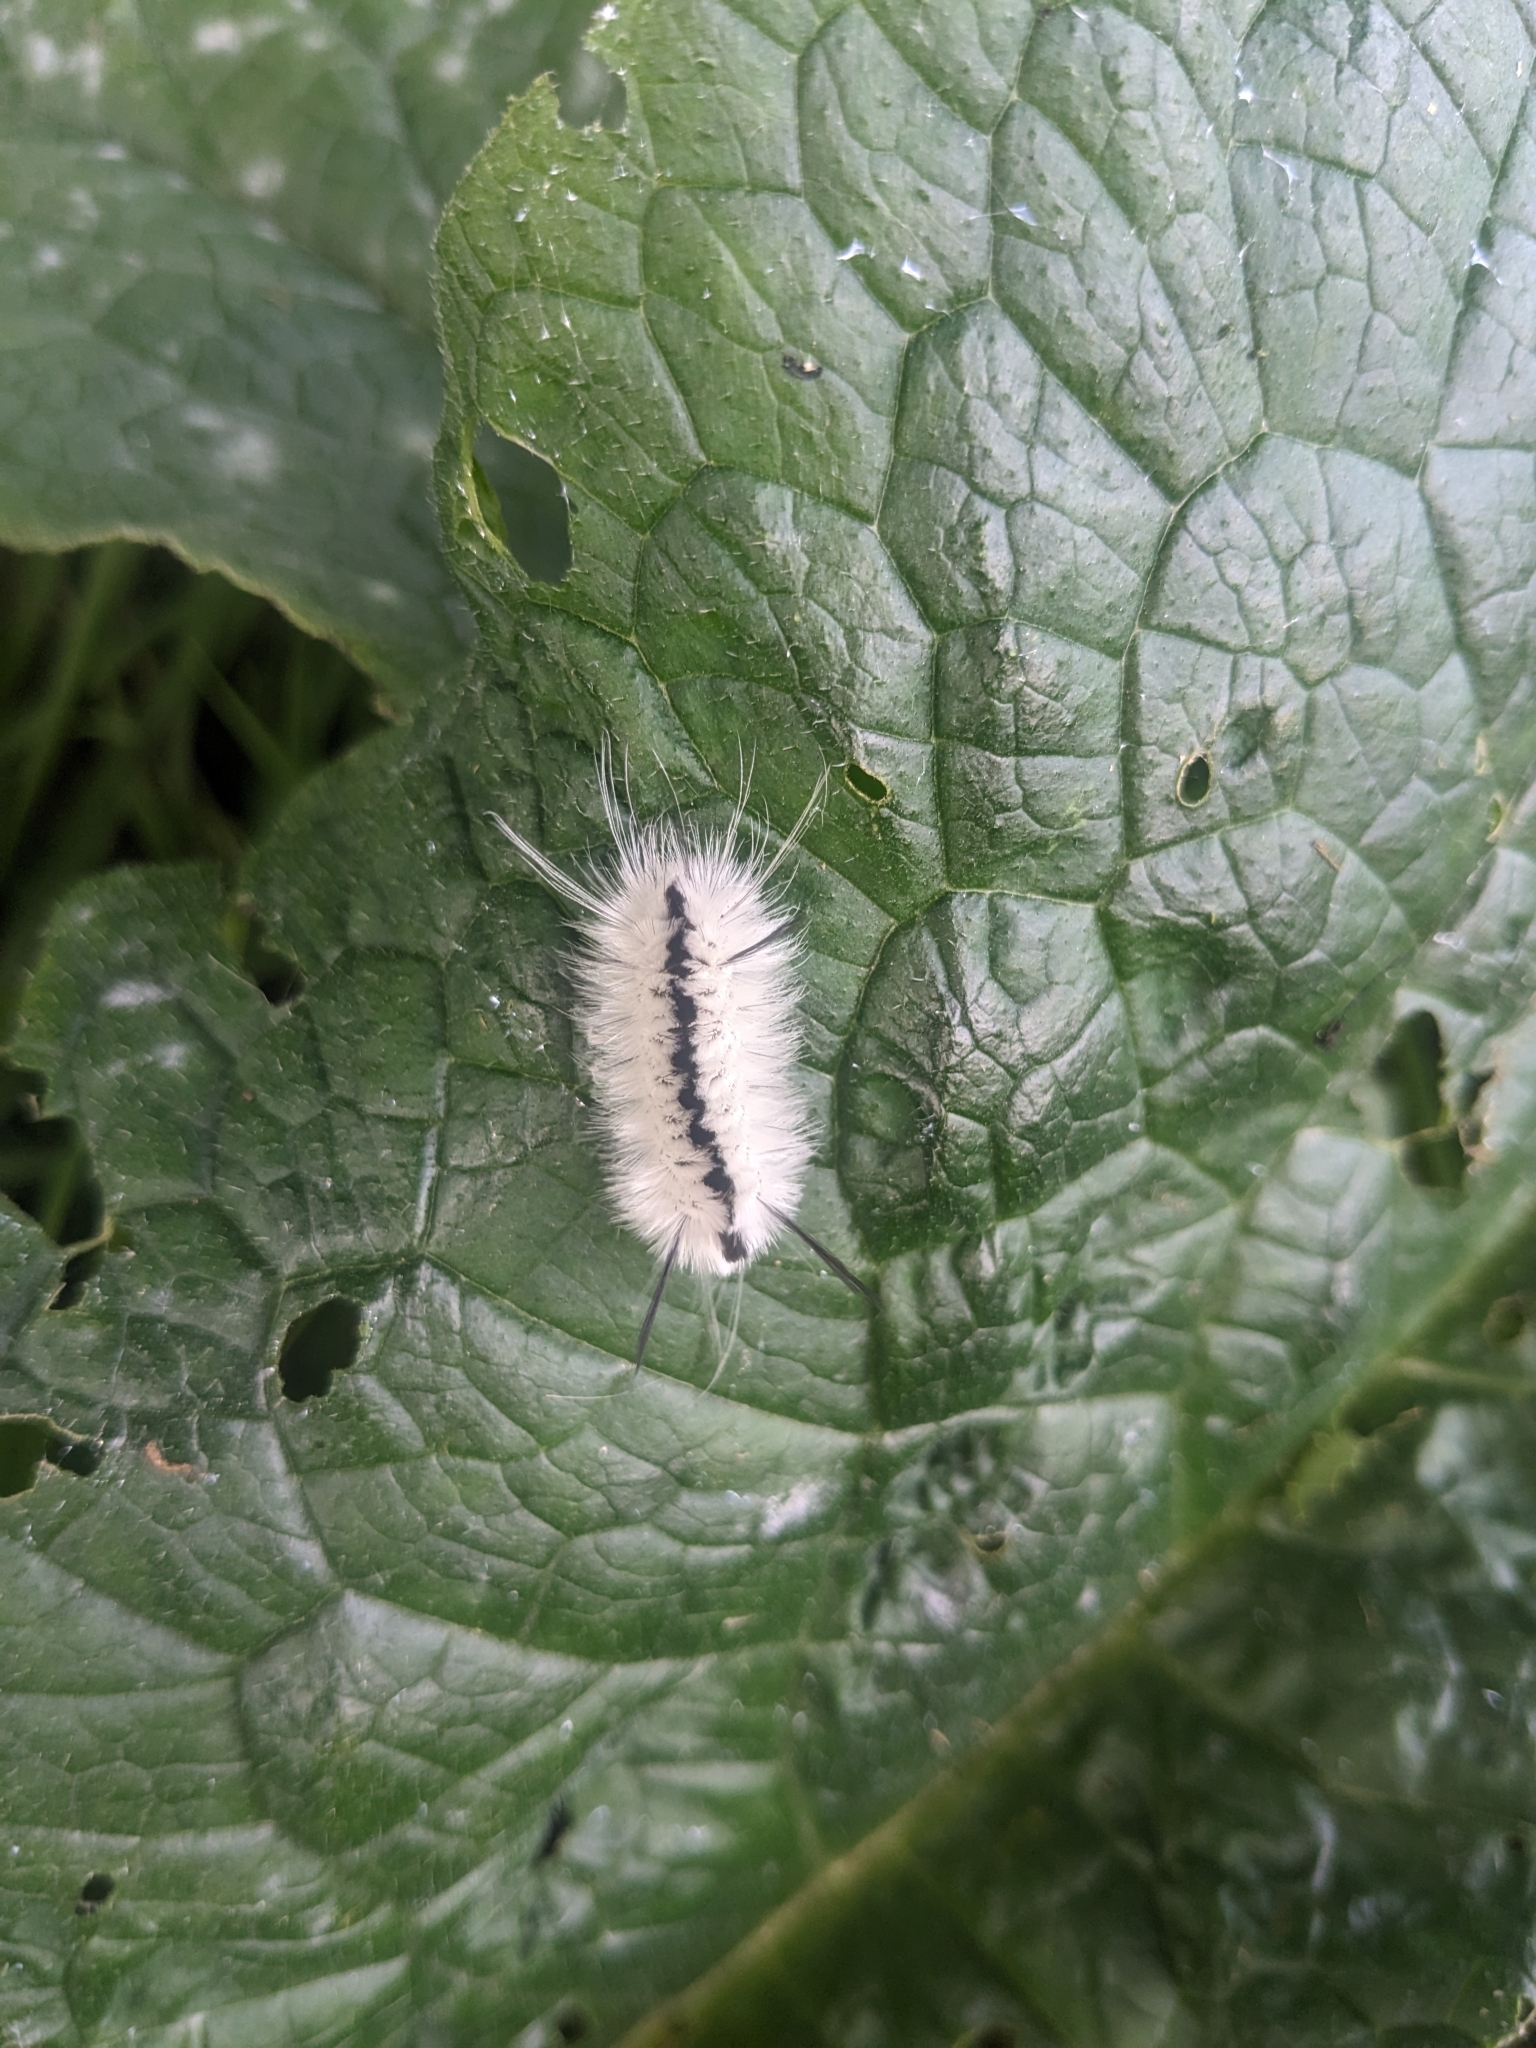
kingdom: Animalia
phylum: Arthropoda
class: Insecta
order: Lepidoptera
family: Erebidae
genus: Lophocampa
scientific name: Lophocampa caryae
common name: Hickory tussock moth
